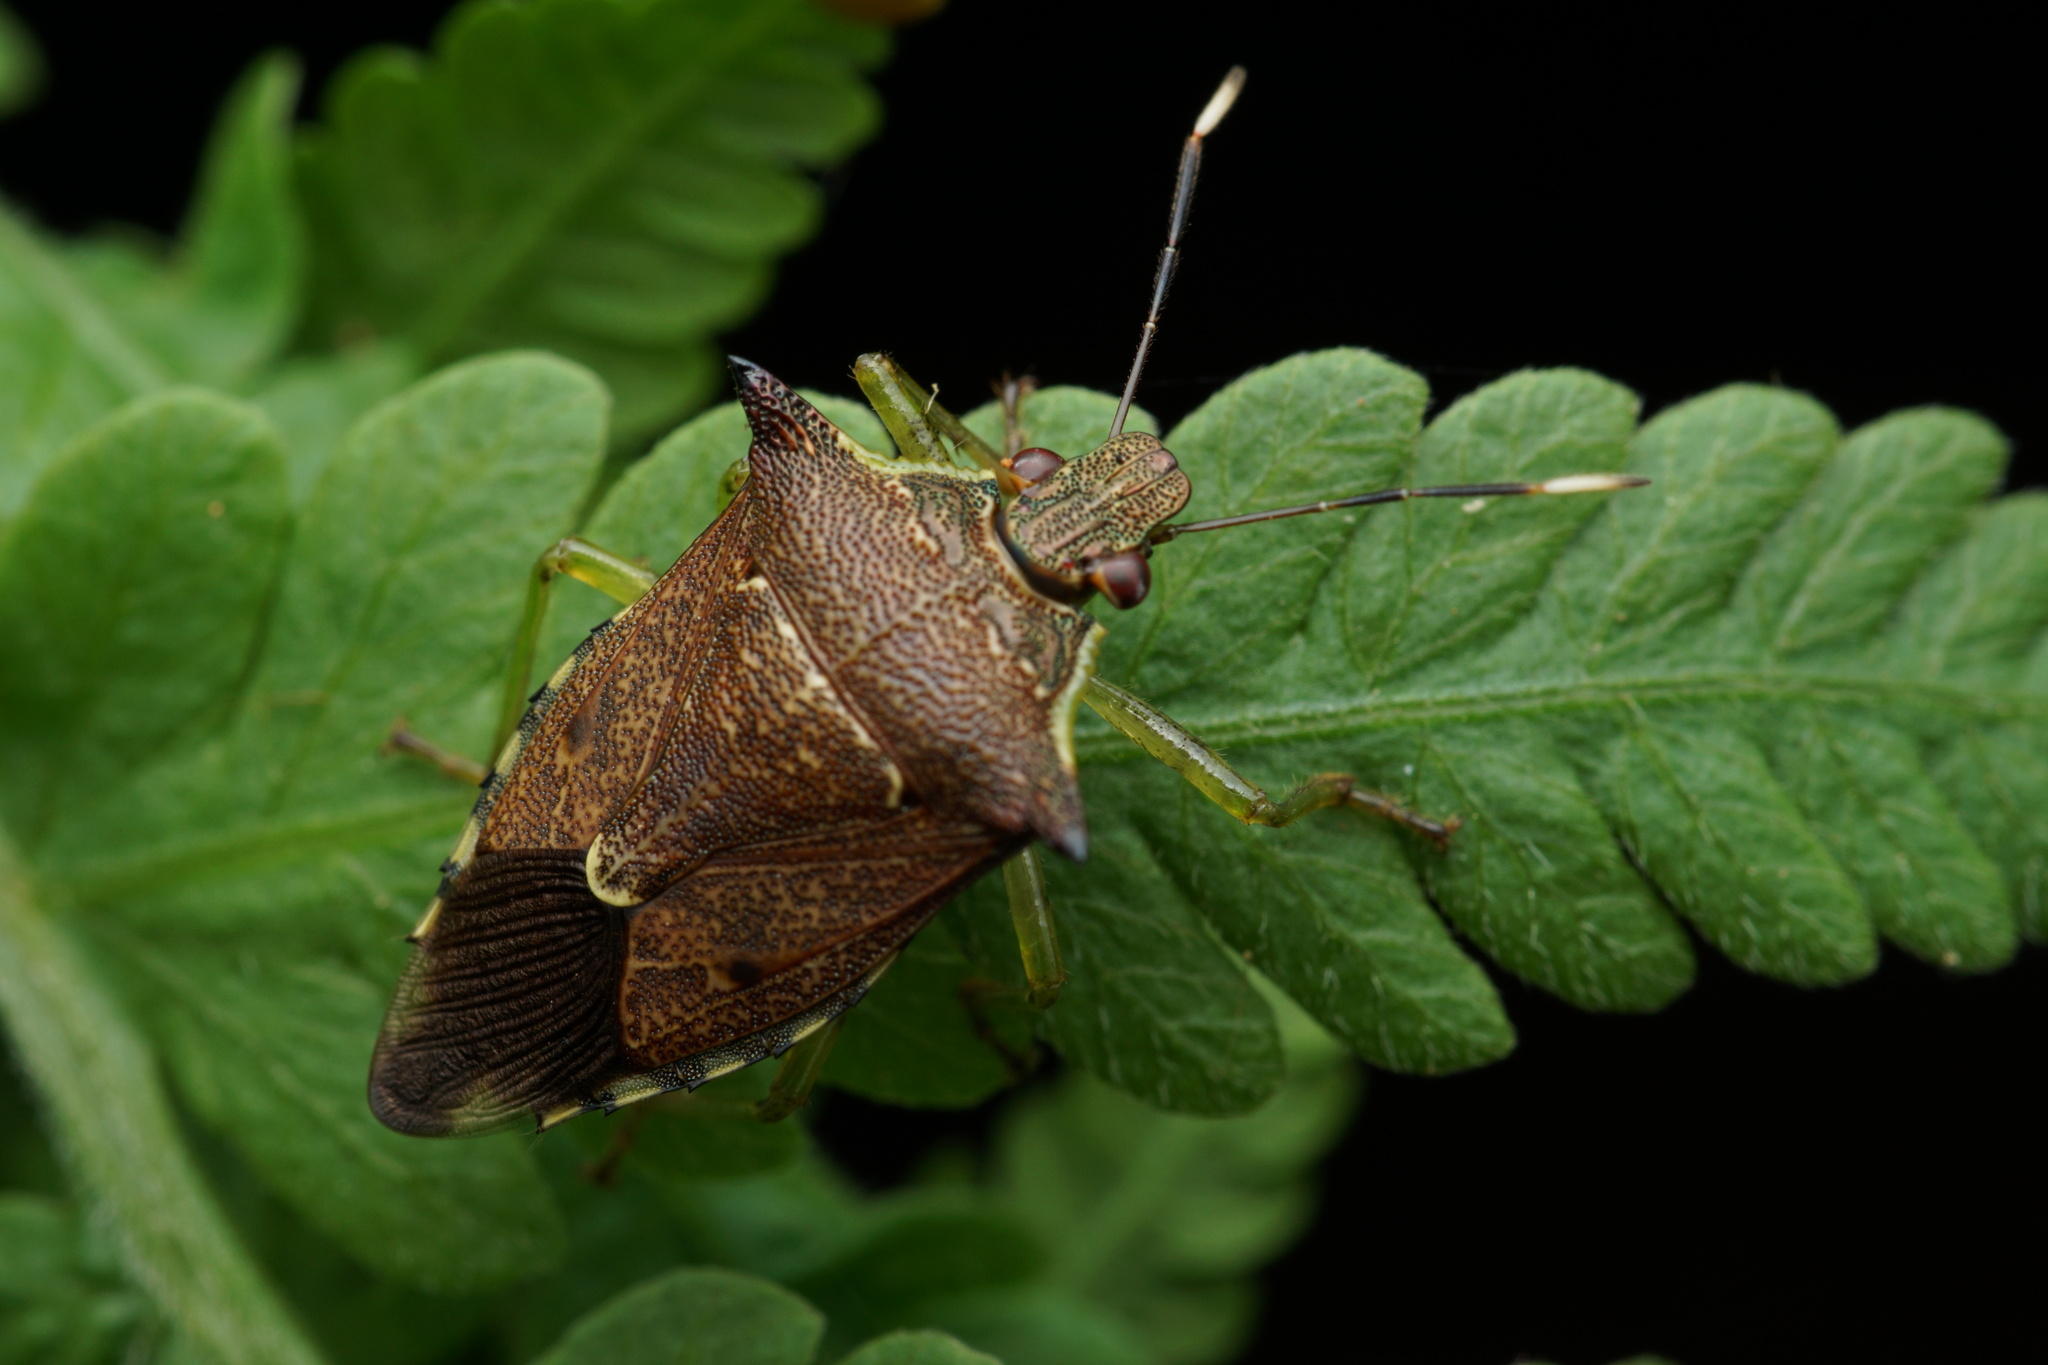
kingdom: Animalia
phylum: Arthropoda
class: Insecta
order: Hemiptera
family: Pentatomidae
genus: Podisus
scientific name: Podisus fuscescens
